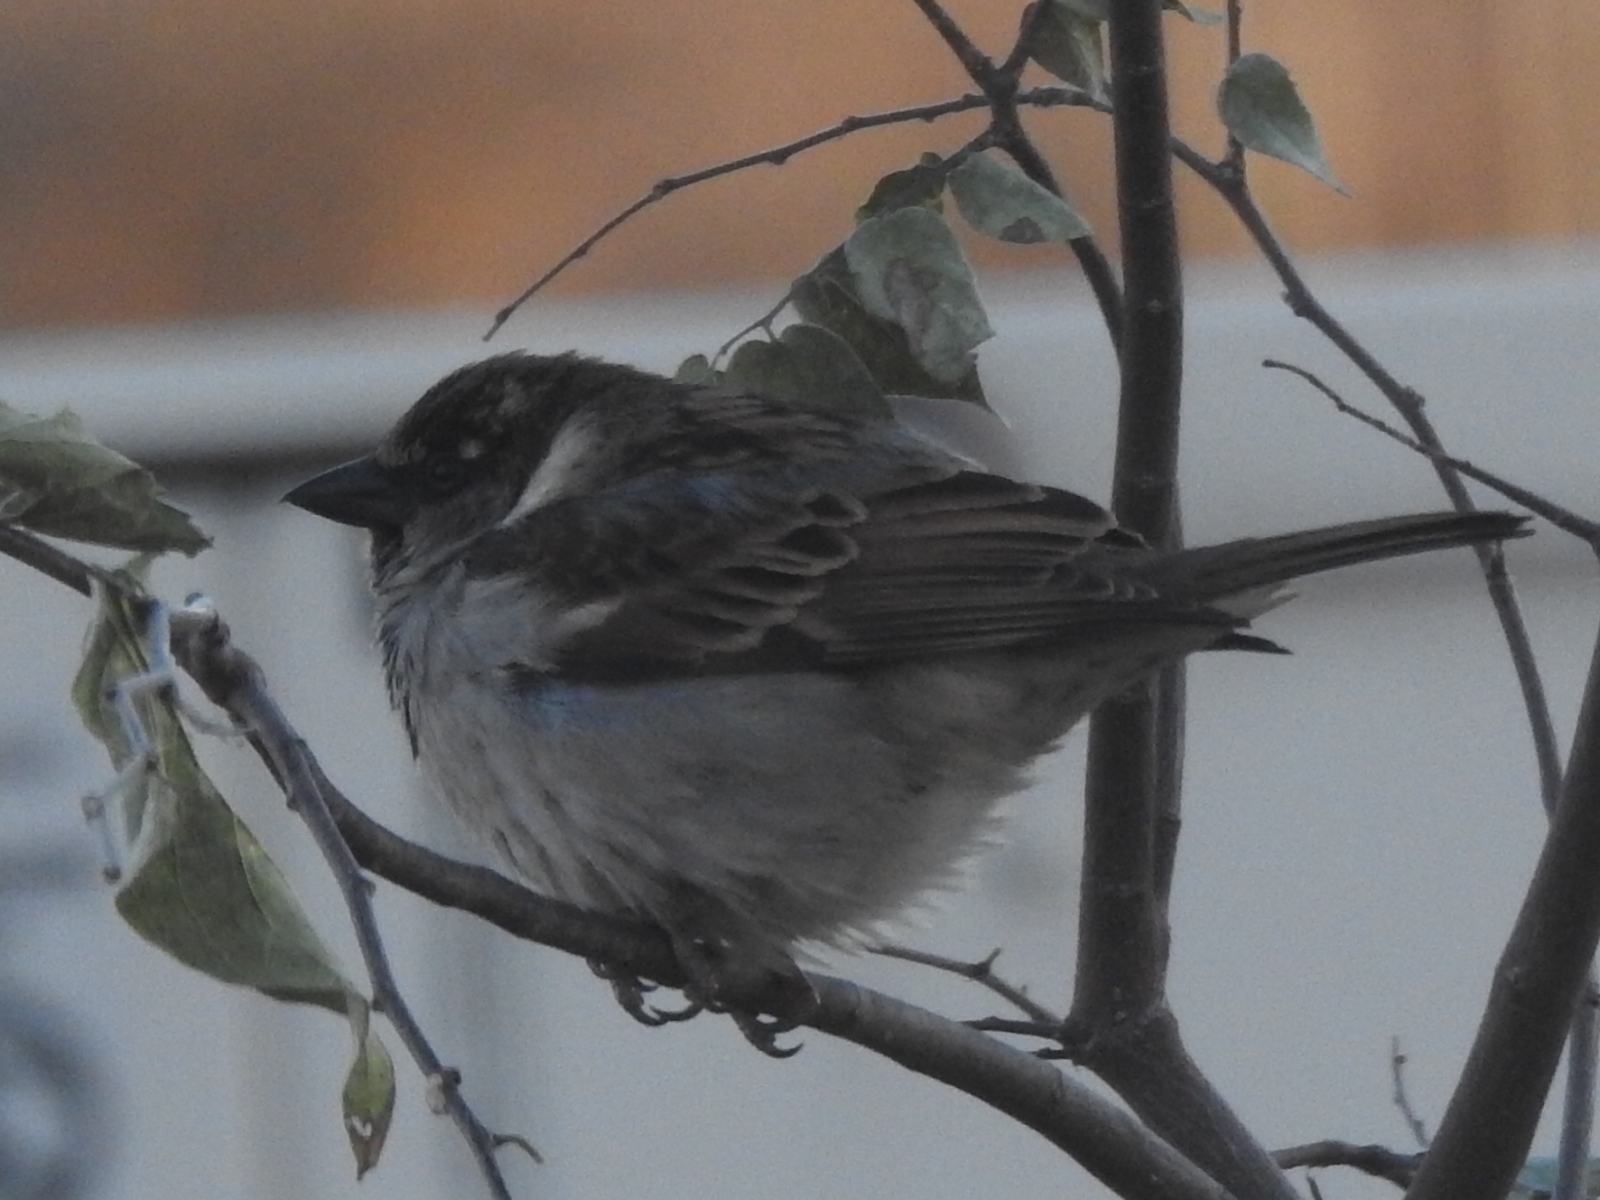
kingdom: Animalia
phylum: Chordata
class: Aves
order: Passeriformes
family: Passeridae
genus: Passer
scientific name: Passer domesticus
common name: House sparrow
